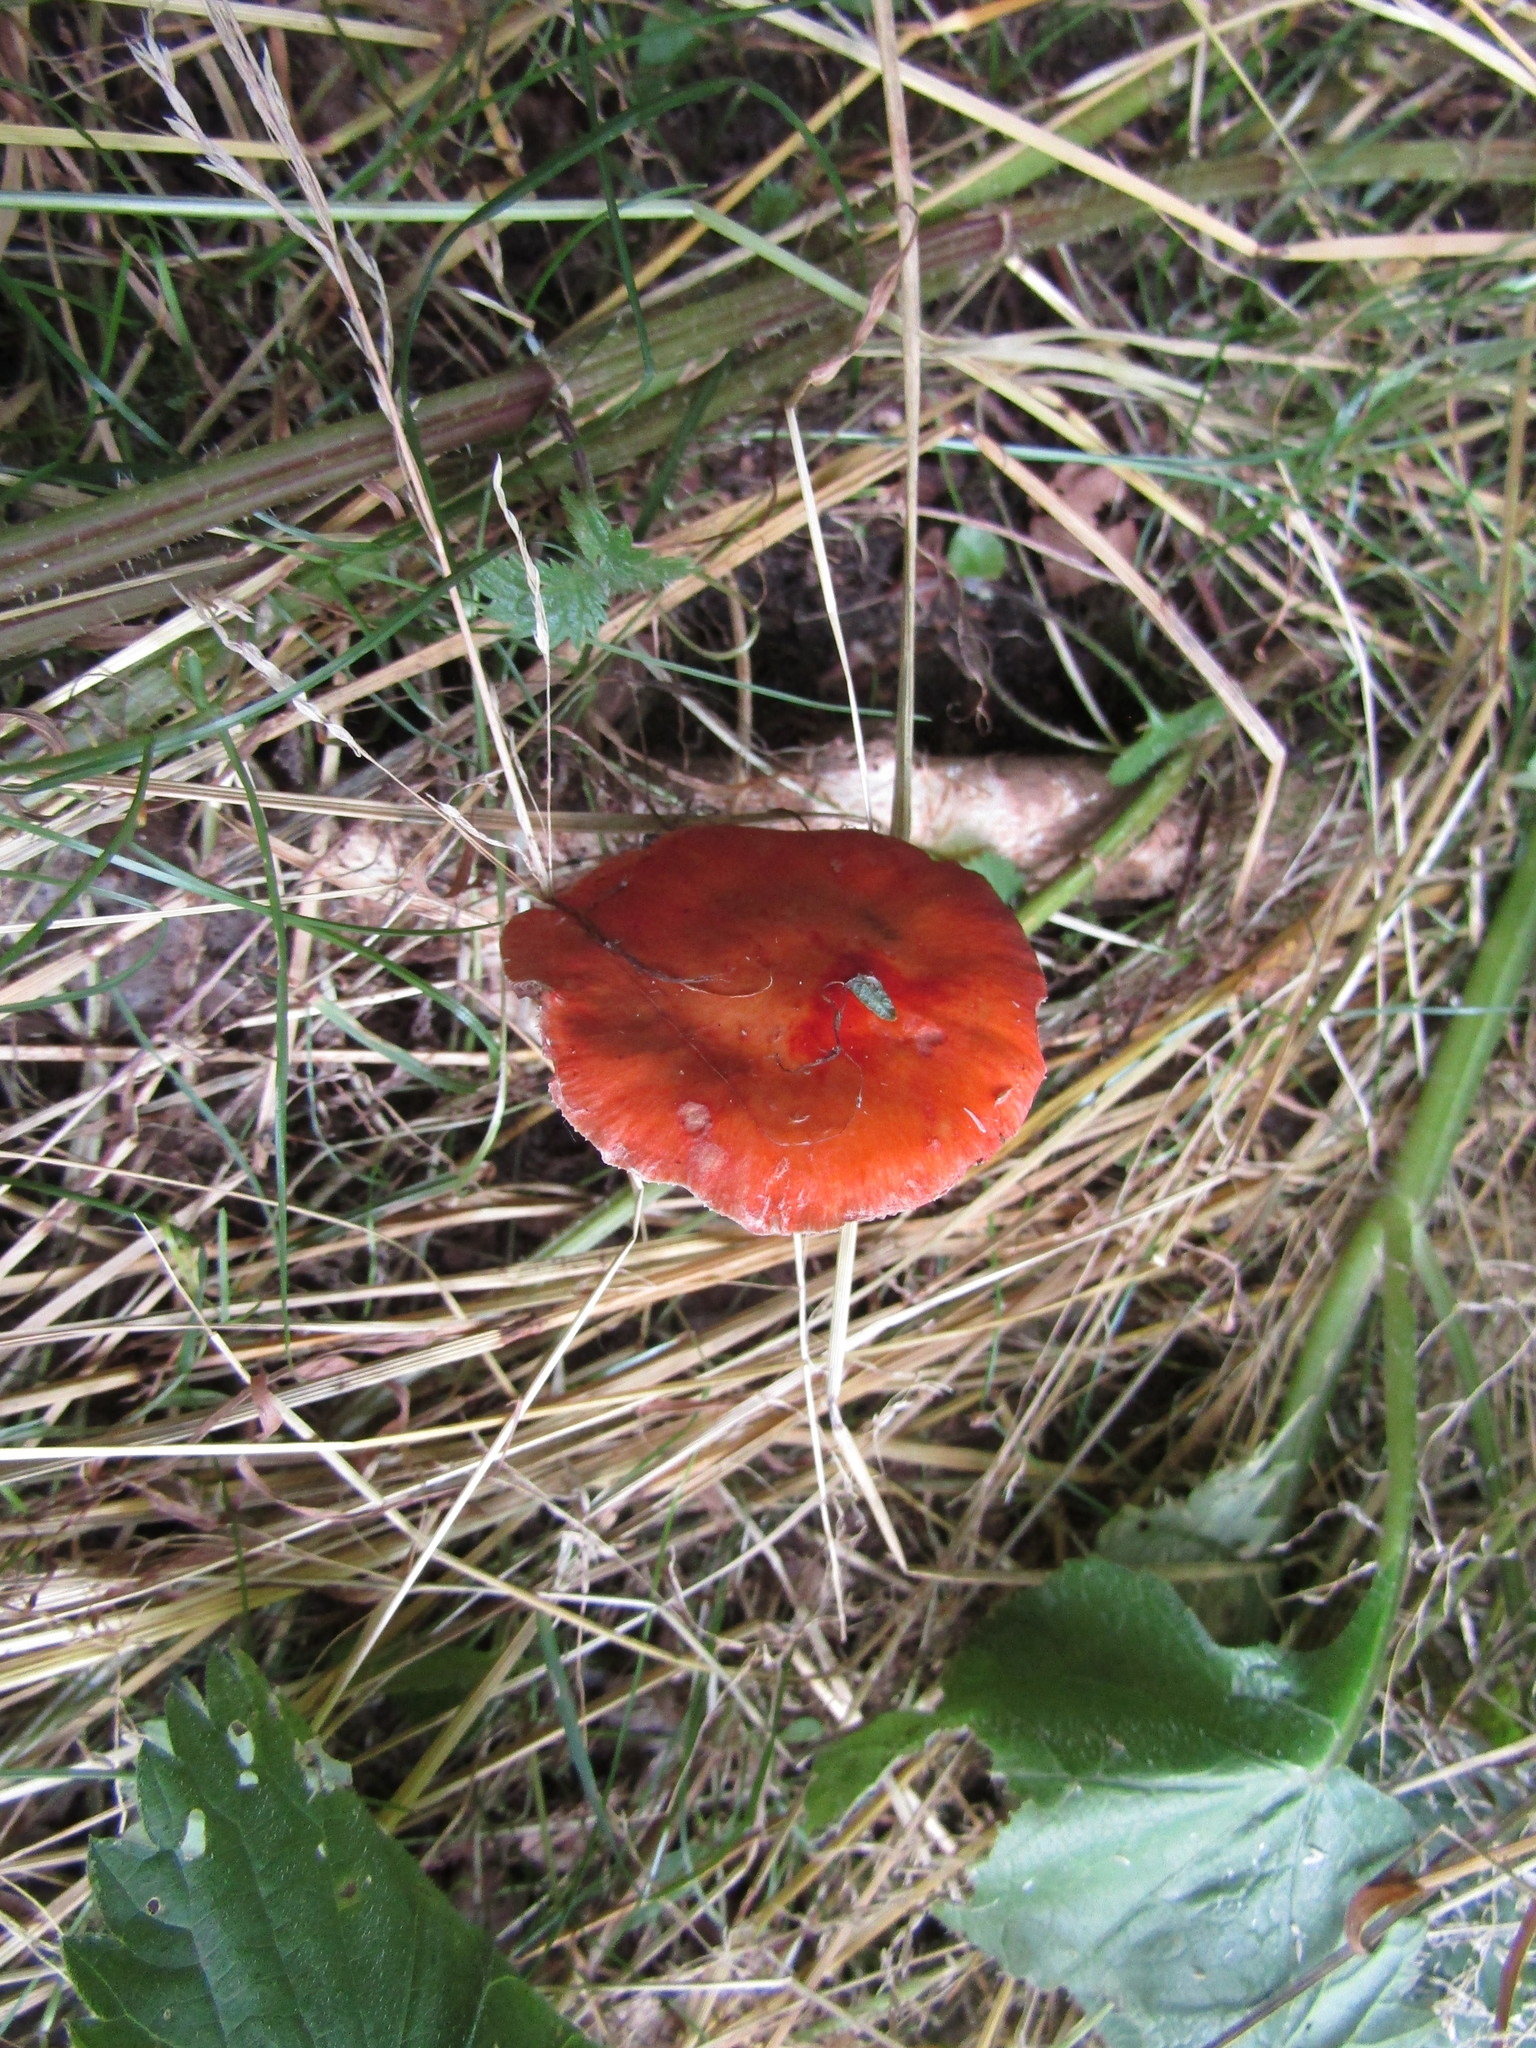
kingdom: Fungi
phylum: Basidiomycota
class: Agaricomycetes
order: Agaricales
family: Strophariaceae
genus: Leratiomyces
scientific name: Leratiomyces ceres
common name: Redlead roundhead
